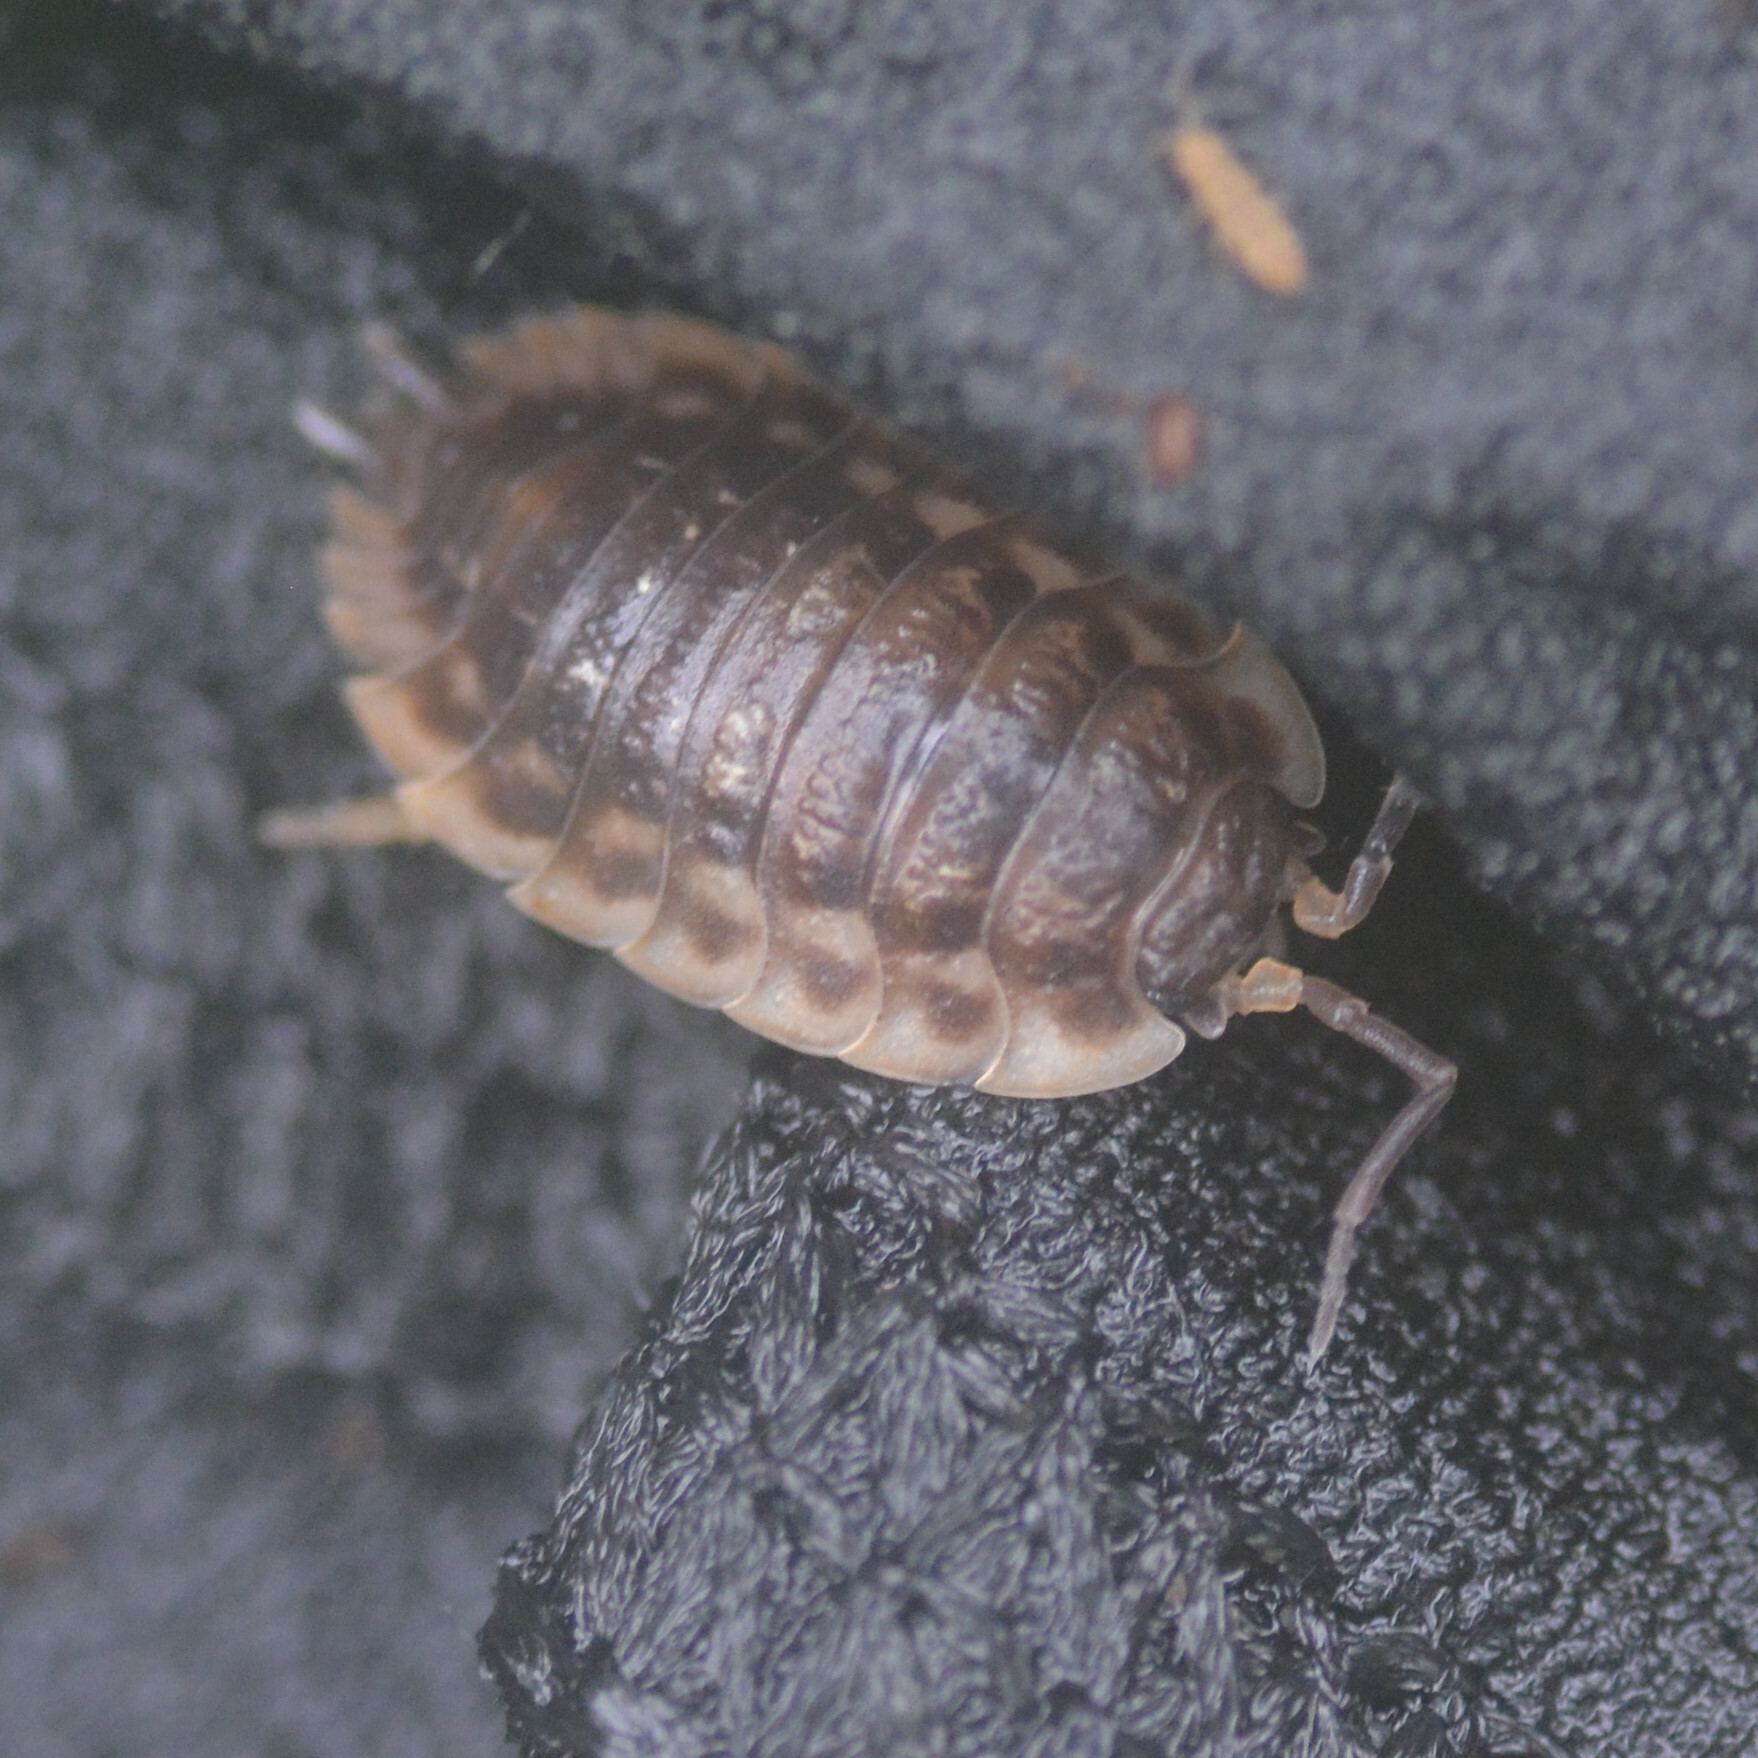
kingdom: Animalia
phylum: Arthropoda
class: Malacostraca
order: Isopoda
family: Oniscidae
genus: Oniscus
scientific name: Oniscus asellus
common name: Common shiny woodlouse
